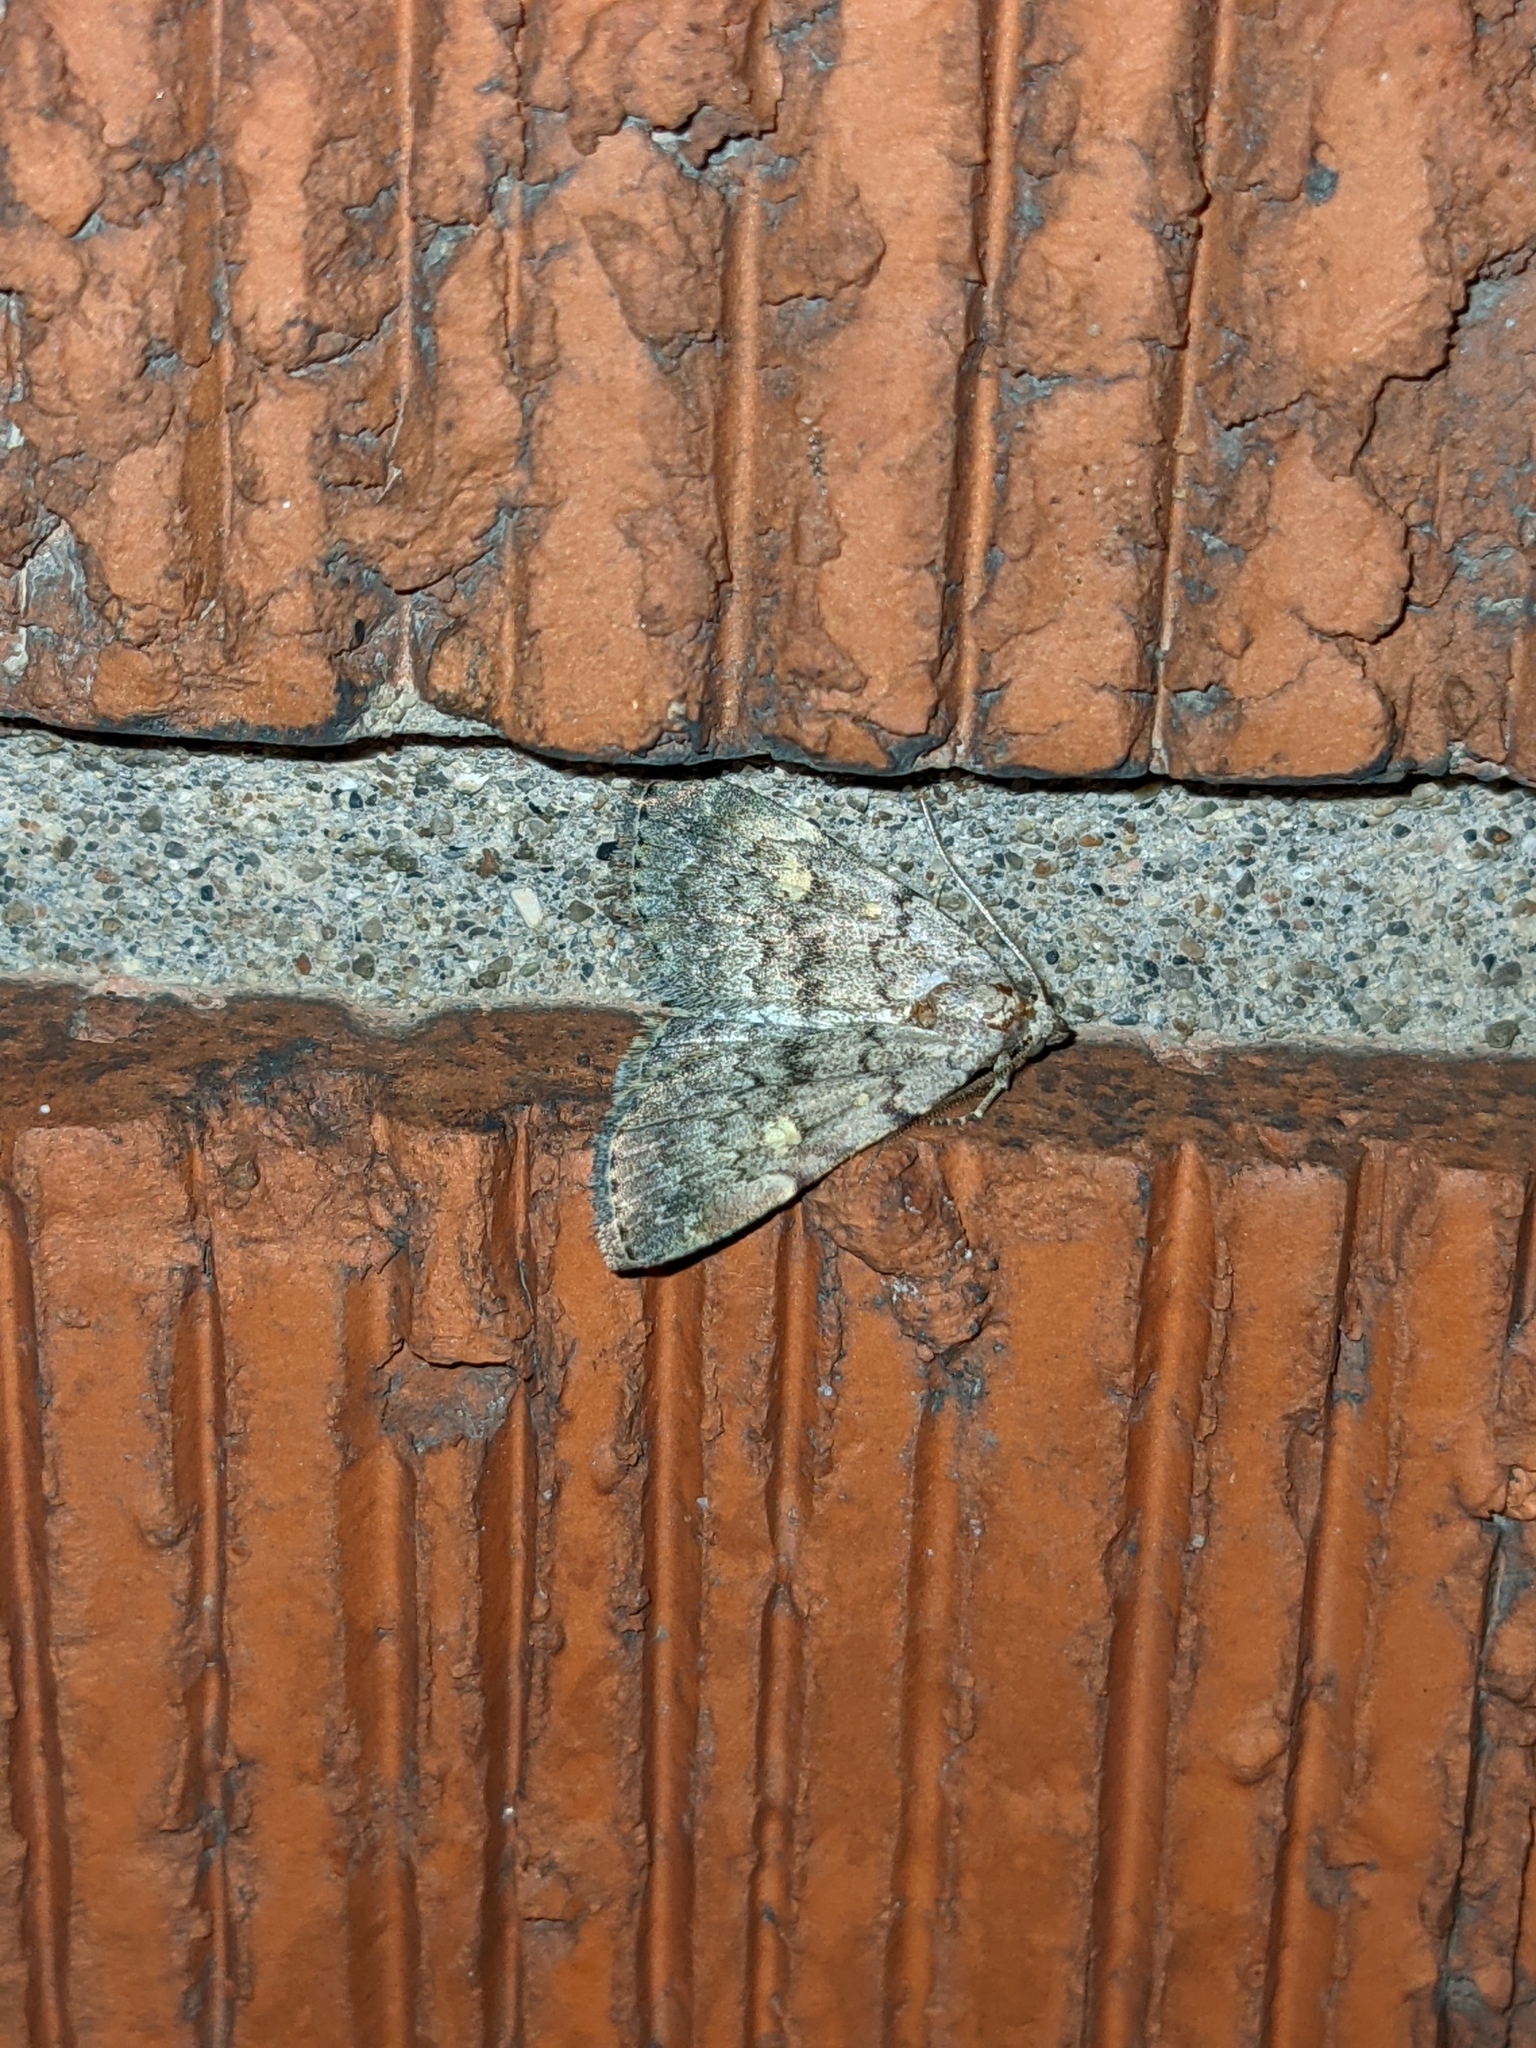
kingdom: Animalia
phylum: Arthropoda
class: Insecta
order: Lepidoptera
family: Erebidae
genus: Idia
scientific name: Idia aemula
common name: Common idia moth
